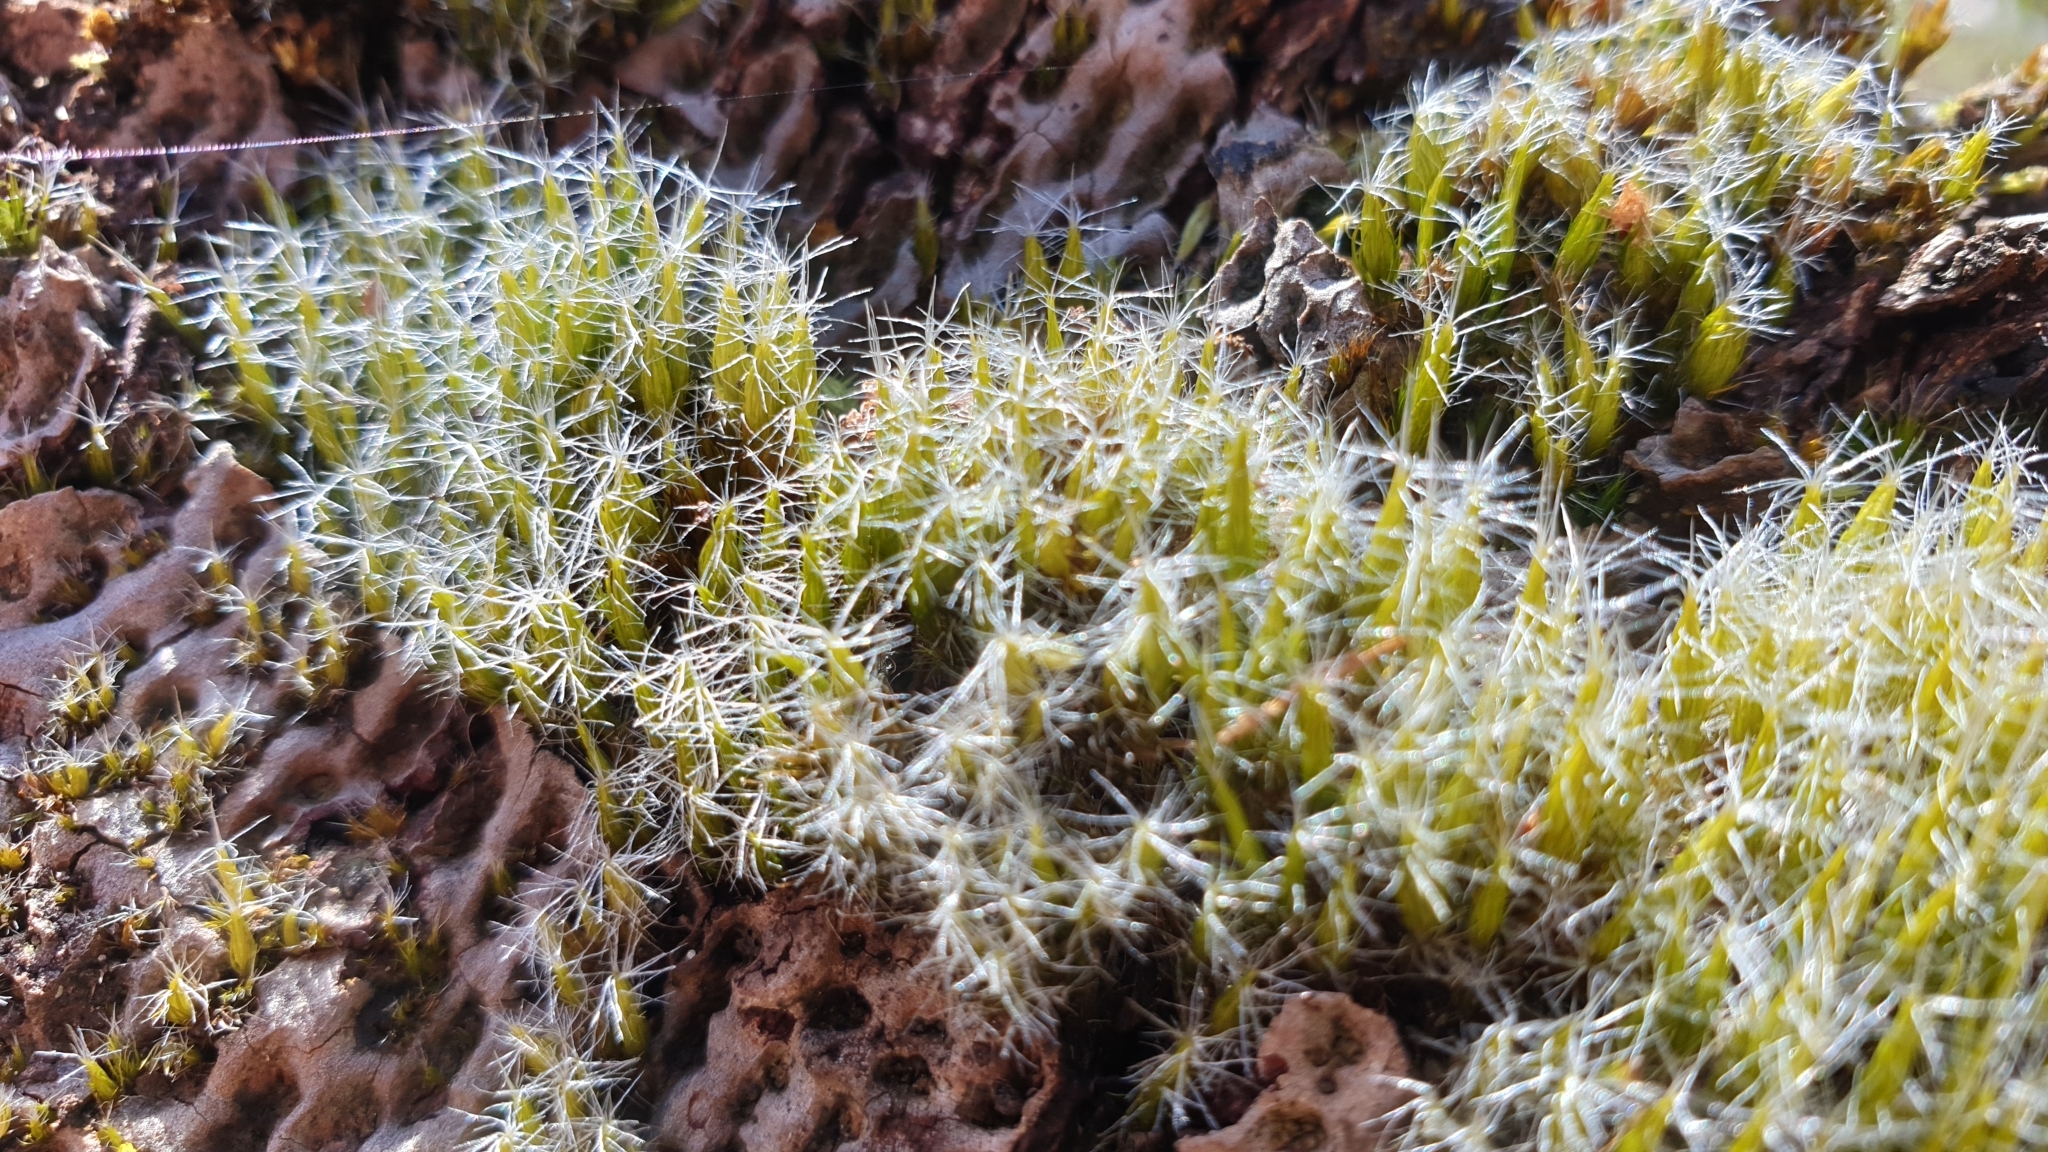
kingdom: Plantae
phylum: Bryophyta
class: Bryopsida
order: Dicranales
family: Leucobryaceae
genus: Campylopus
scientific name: Campylopus introflexus
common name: Heath star moss
